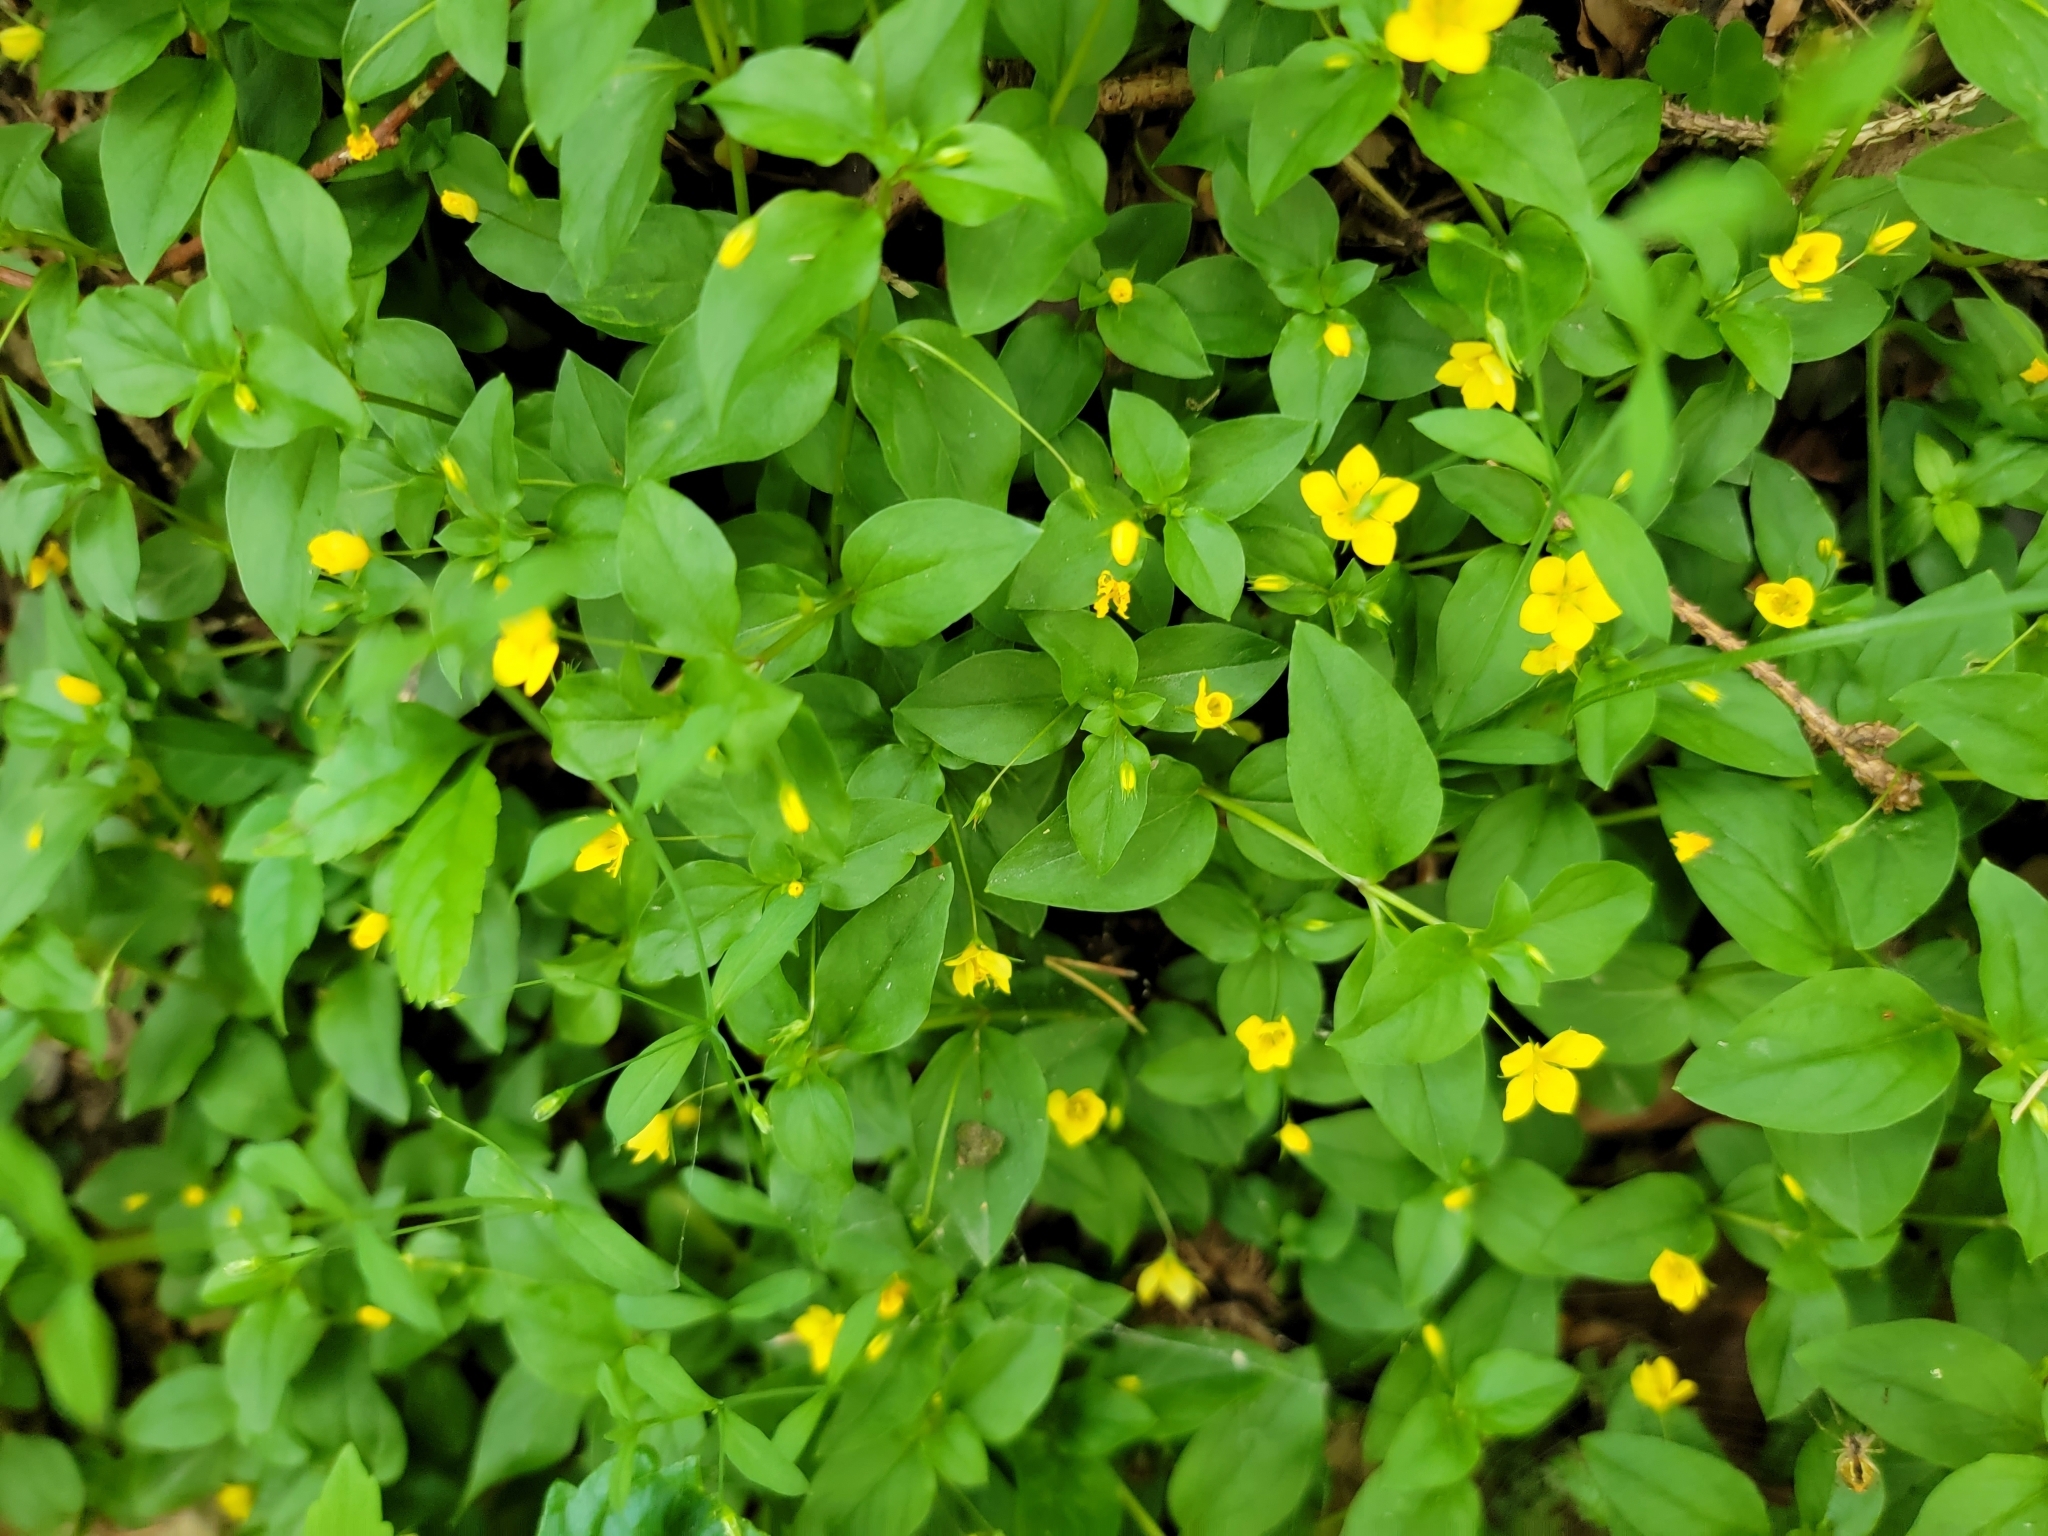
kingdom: Plantae
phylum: Tracheophyta
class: Magnoliopsida
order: Ericales
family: Primulaceae
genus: Lysimachia
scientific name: Lysimachia nemorum
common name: Yellow pimpernel
